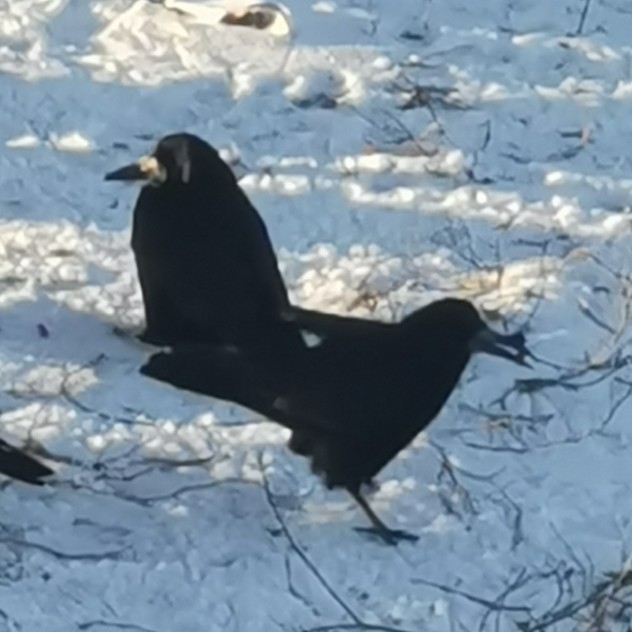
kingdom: Animalia
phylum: Chordata
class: Aves
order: Passeriformes
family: Corvidae
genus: Corvus
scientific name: Corvus frugilegus
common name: Rook
